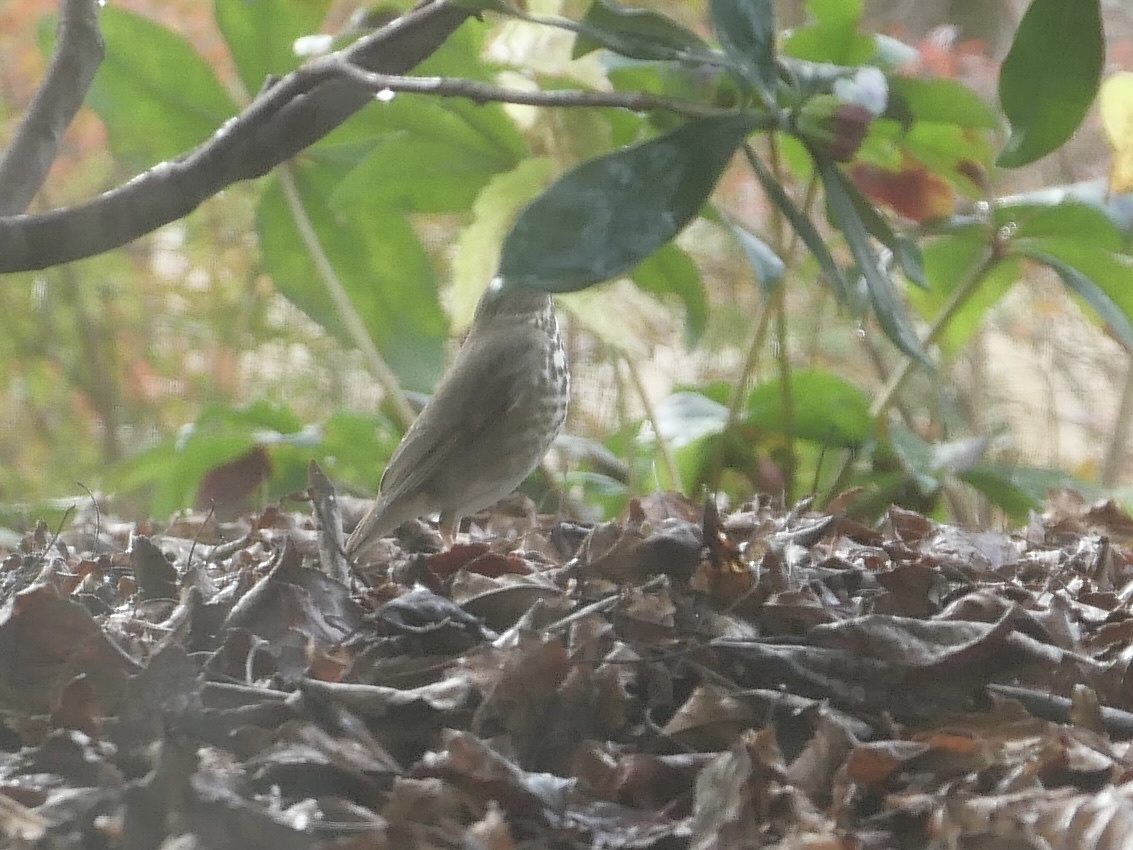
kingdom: Animalia
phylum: Chordata
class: Aves
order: Passeriformes
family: Turdidae
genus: Catharus
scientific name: Catharus guttatus
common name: Hermit thrush
